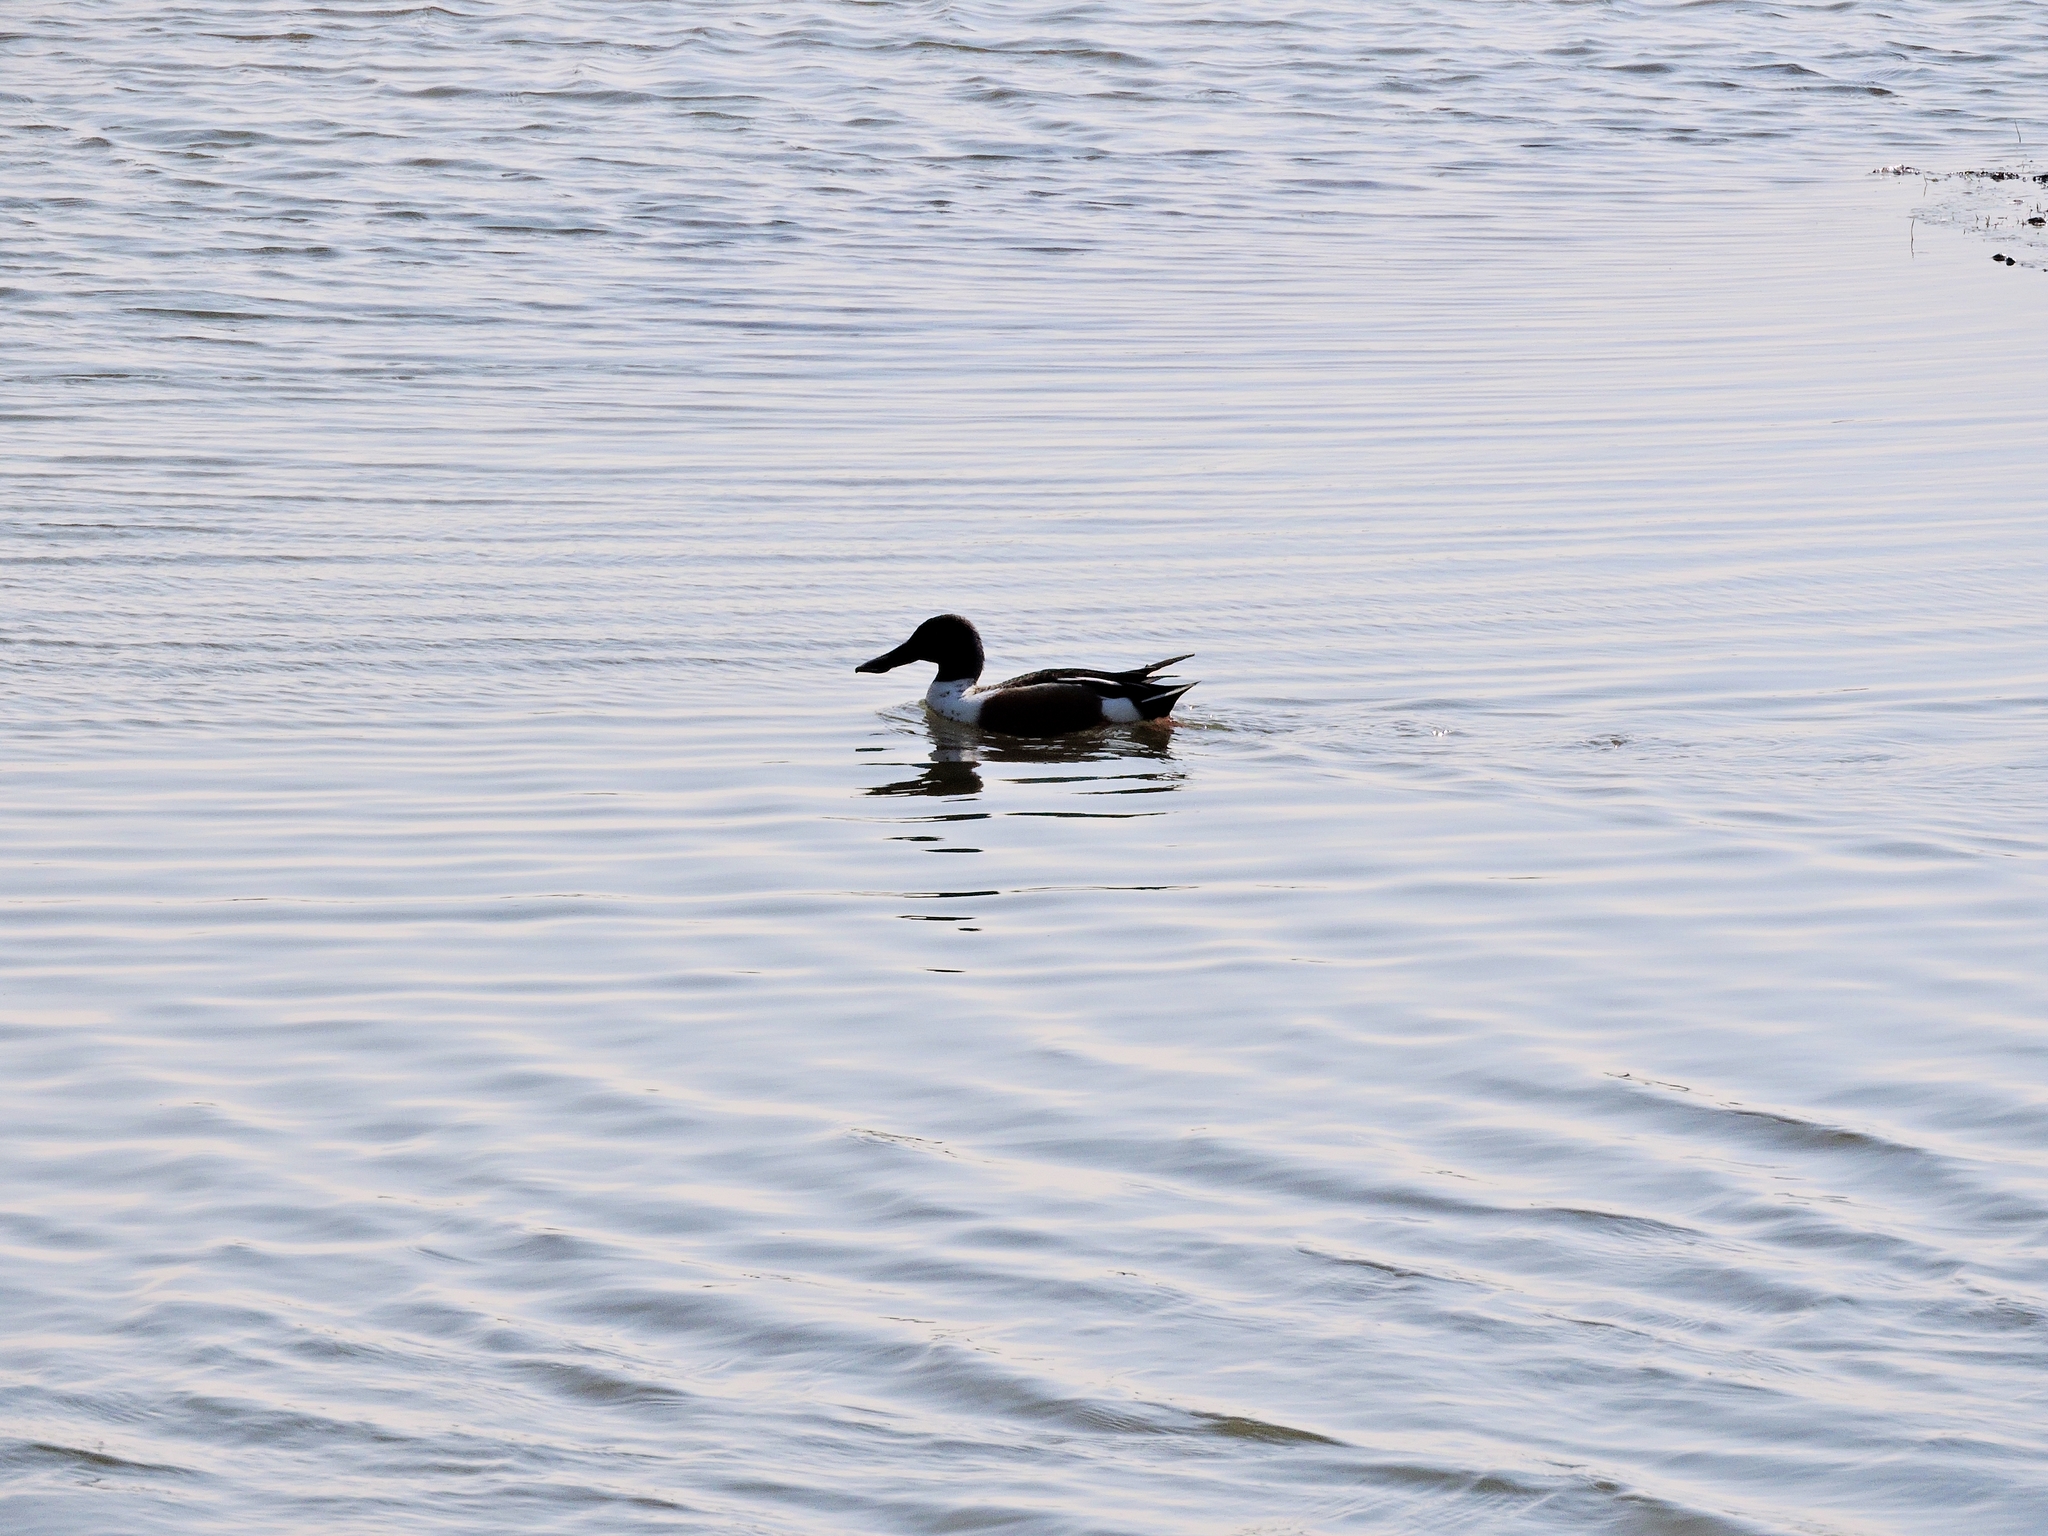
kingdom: Animalia
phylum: Chordata
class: Aves
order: Anseriformes
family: Anatidae
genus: Spatula
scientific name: Spatula clypeata
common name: Northern shoveler
